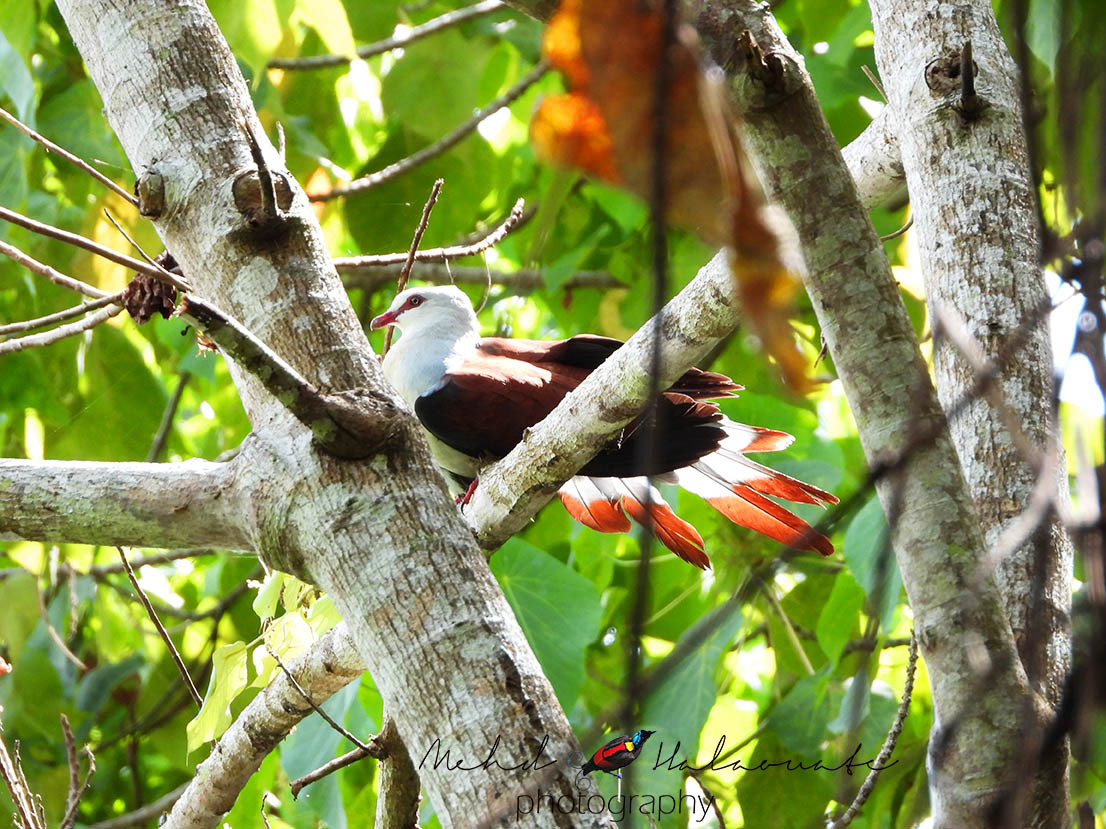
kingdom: Animalia
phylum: Chordata
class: Aves
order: Columbiformes
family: Columbidae
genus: Reinwardtoena
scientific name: Reinwardtoena reinwardti
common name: Great cuckoo-dove
